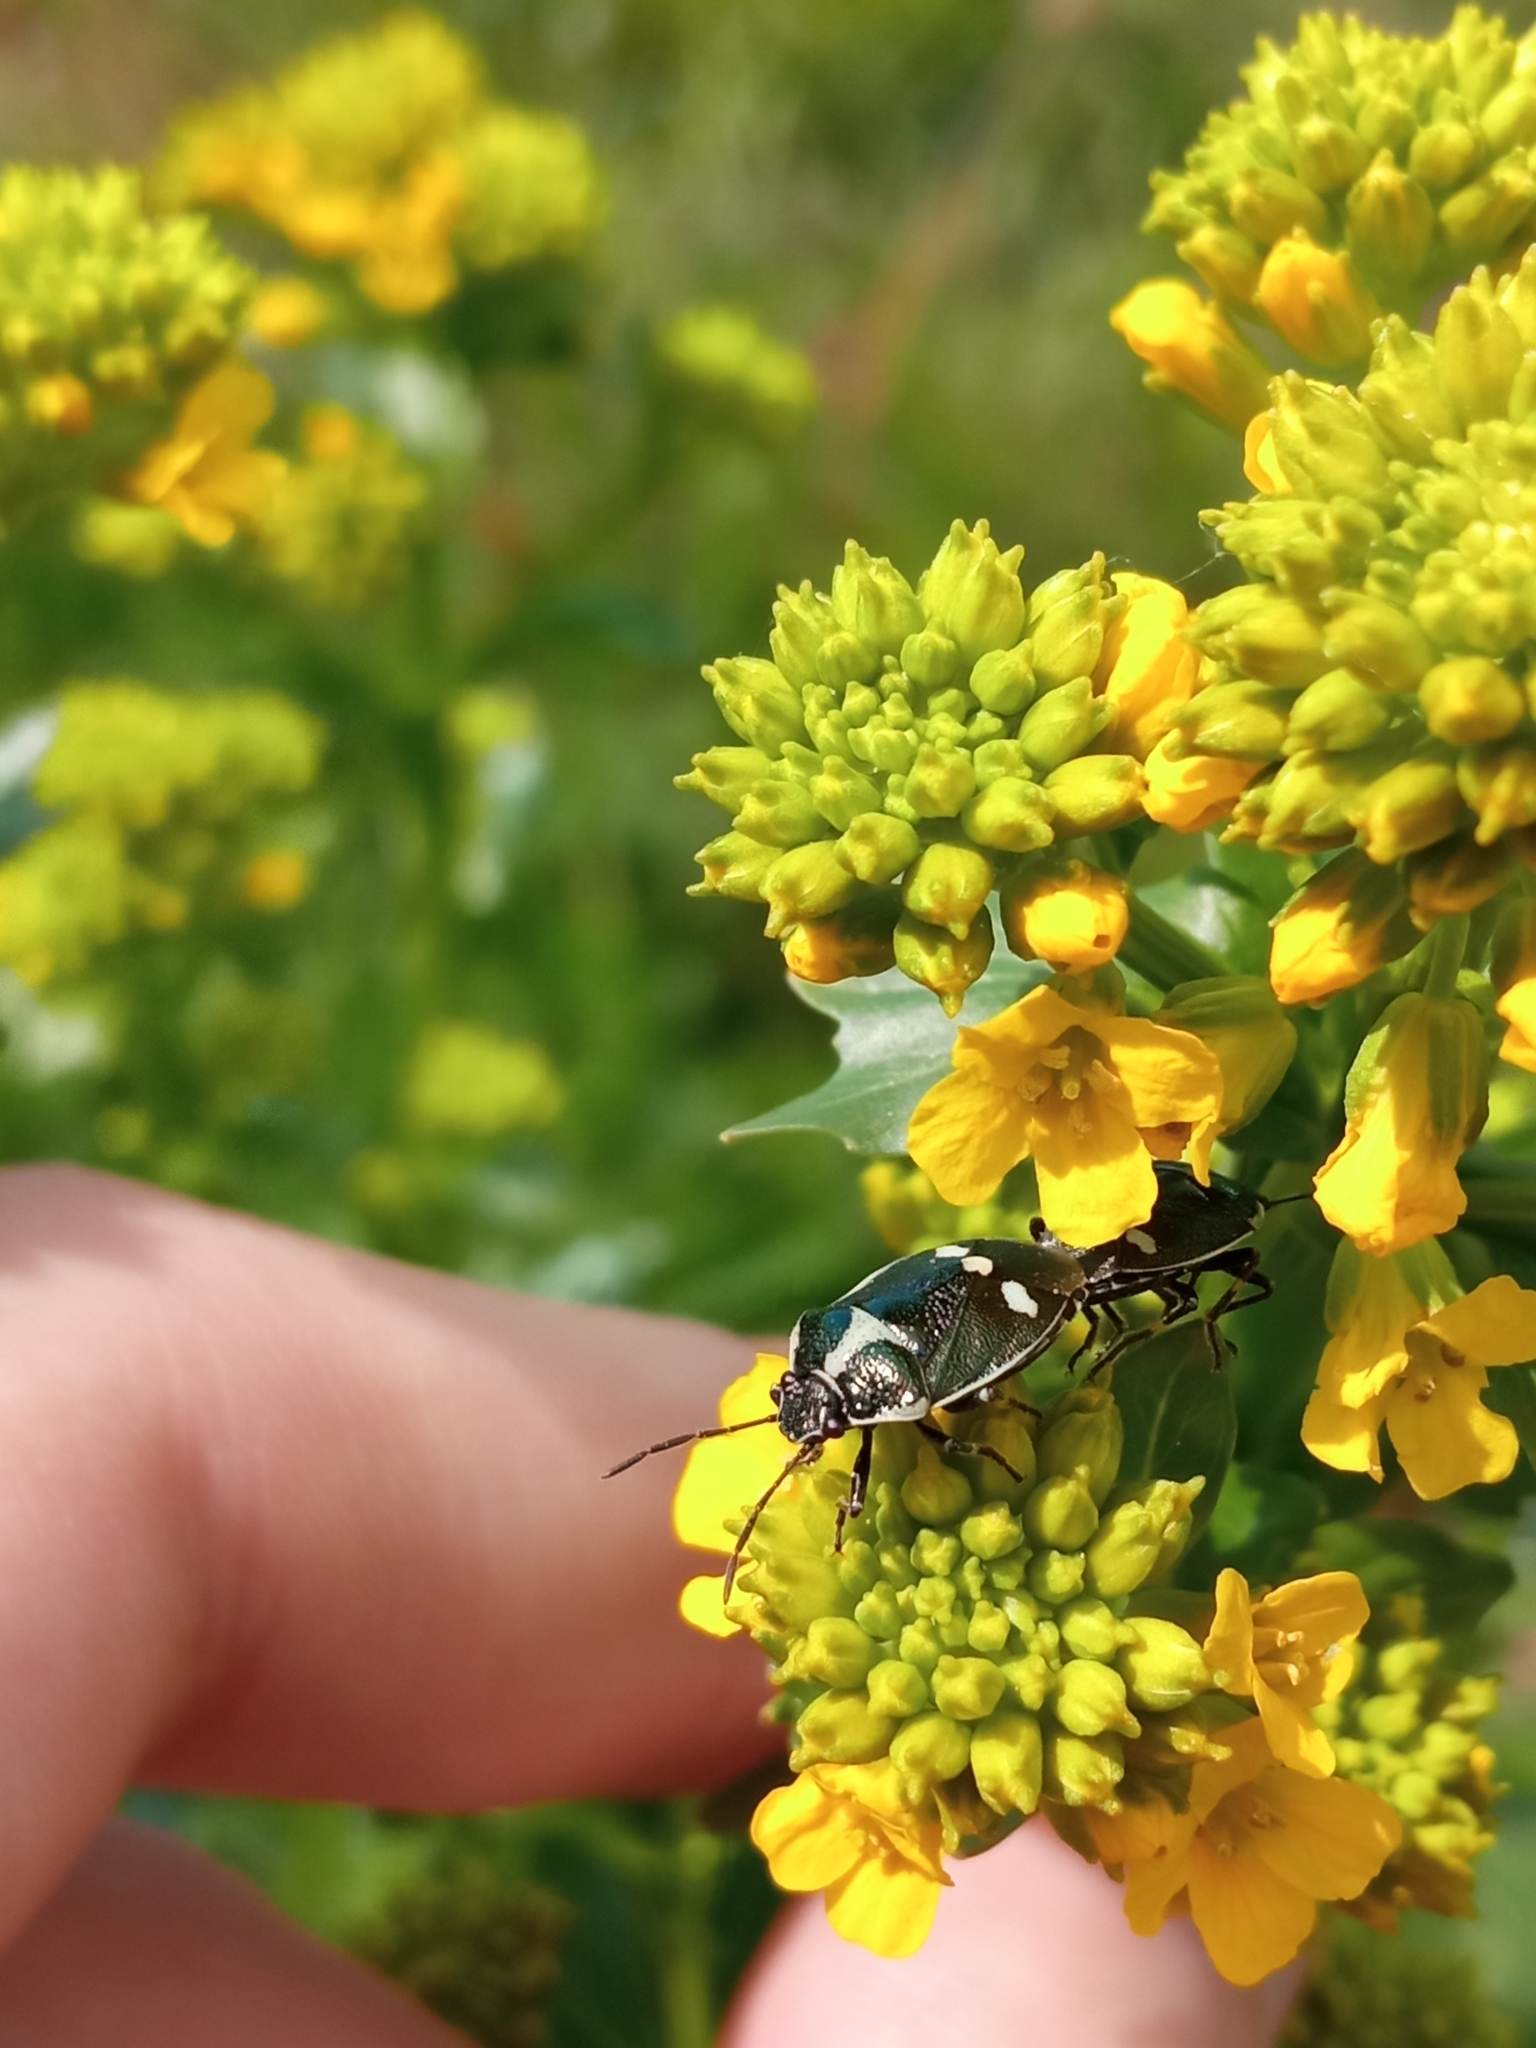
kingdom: Animalia
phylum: Arthropoda
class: Insecta
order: Hemiptera
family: Pentatomidae
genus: Eurydema
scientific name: Eurydema oleracea
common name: Cabbage bug
